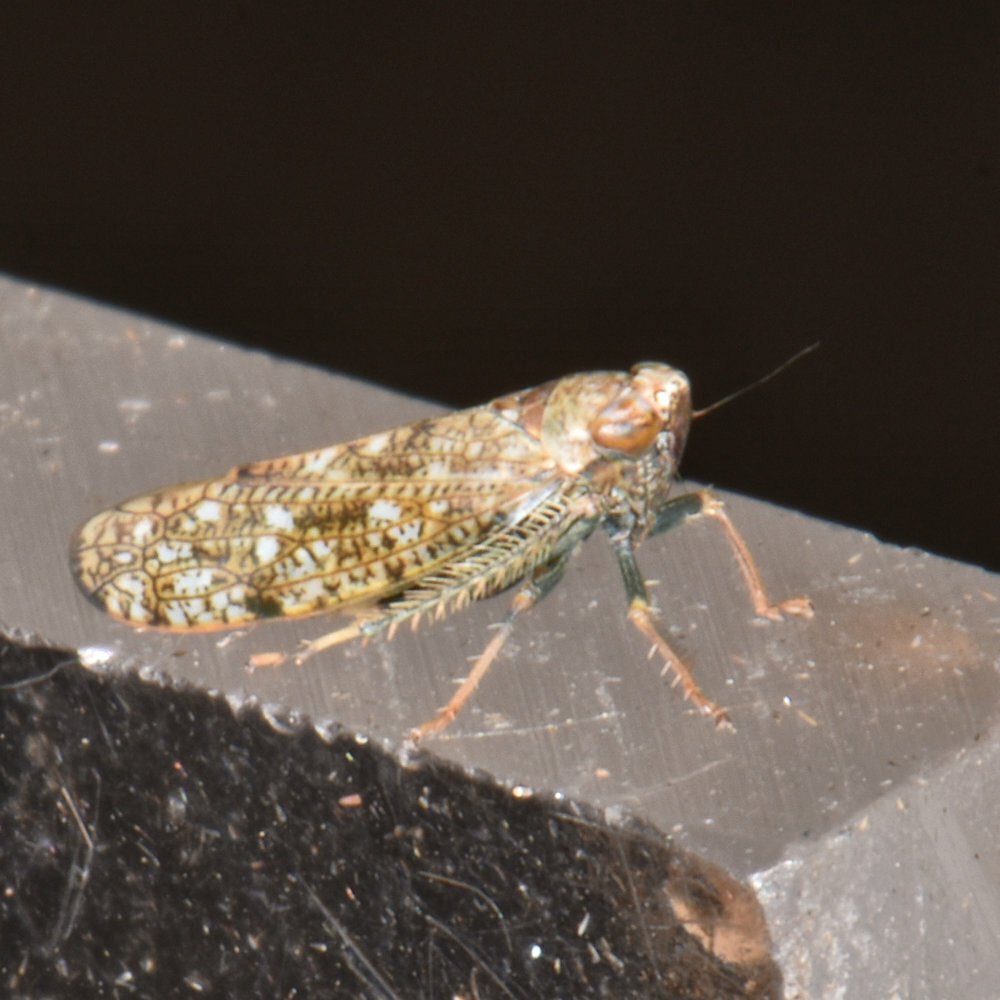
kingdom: Animalia
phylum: Arthropoda
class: Insecta
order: Hemiptera
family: Cicadellidae
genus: Orientus
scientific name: Orientus ishidae
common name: Japanese leafhopper
